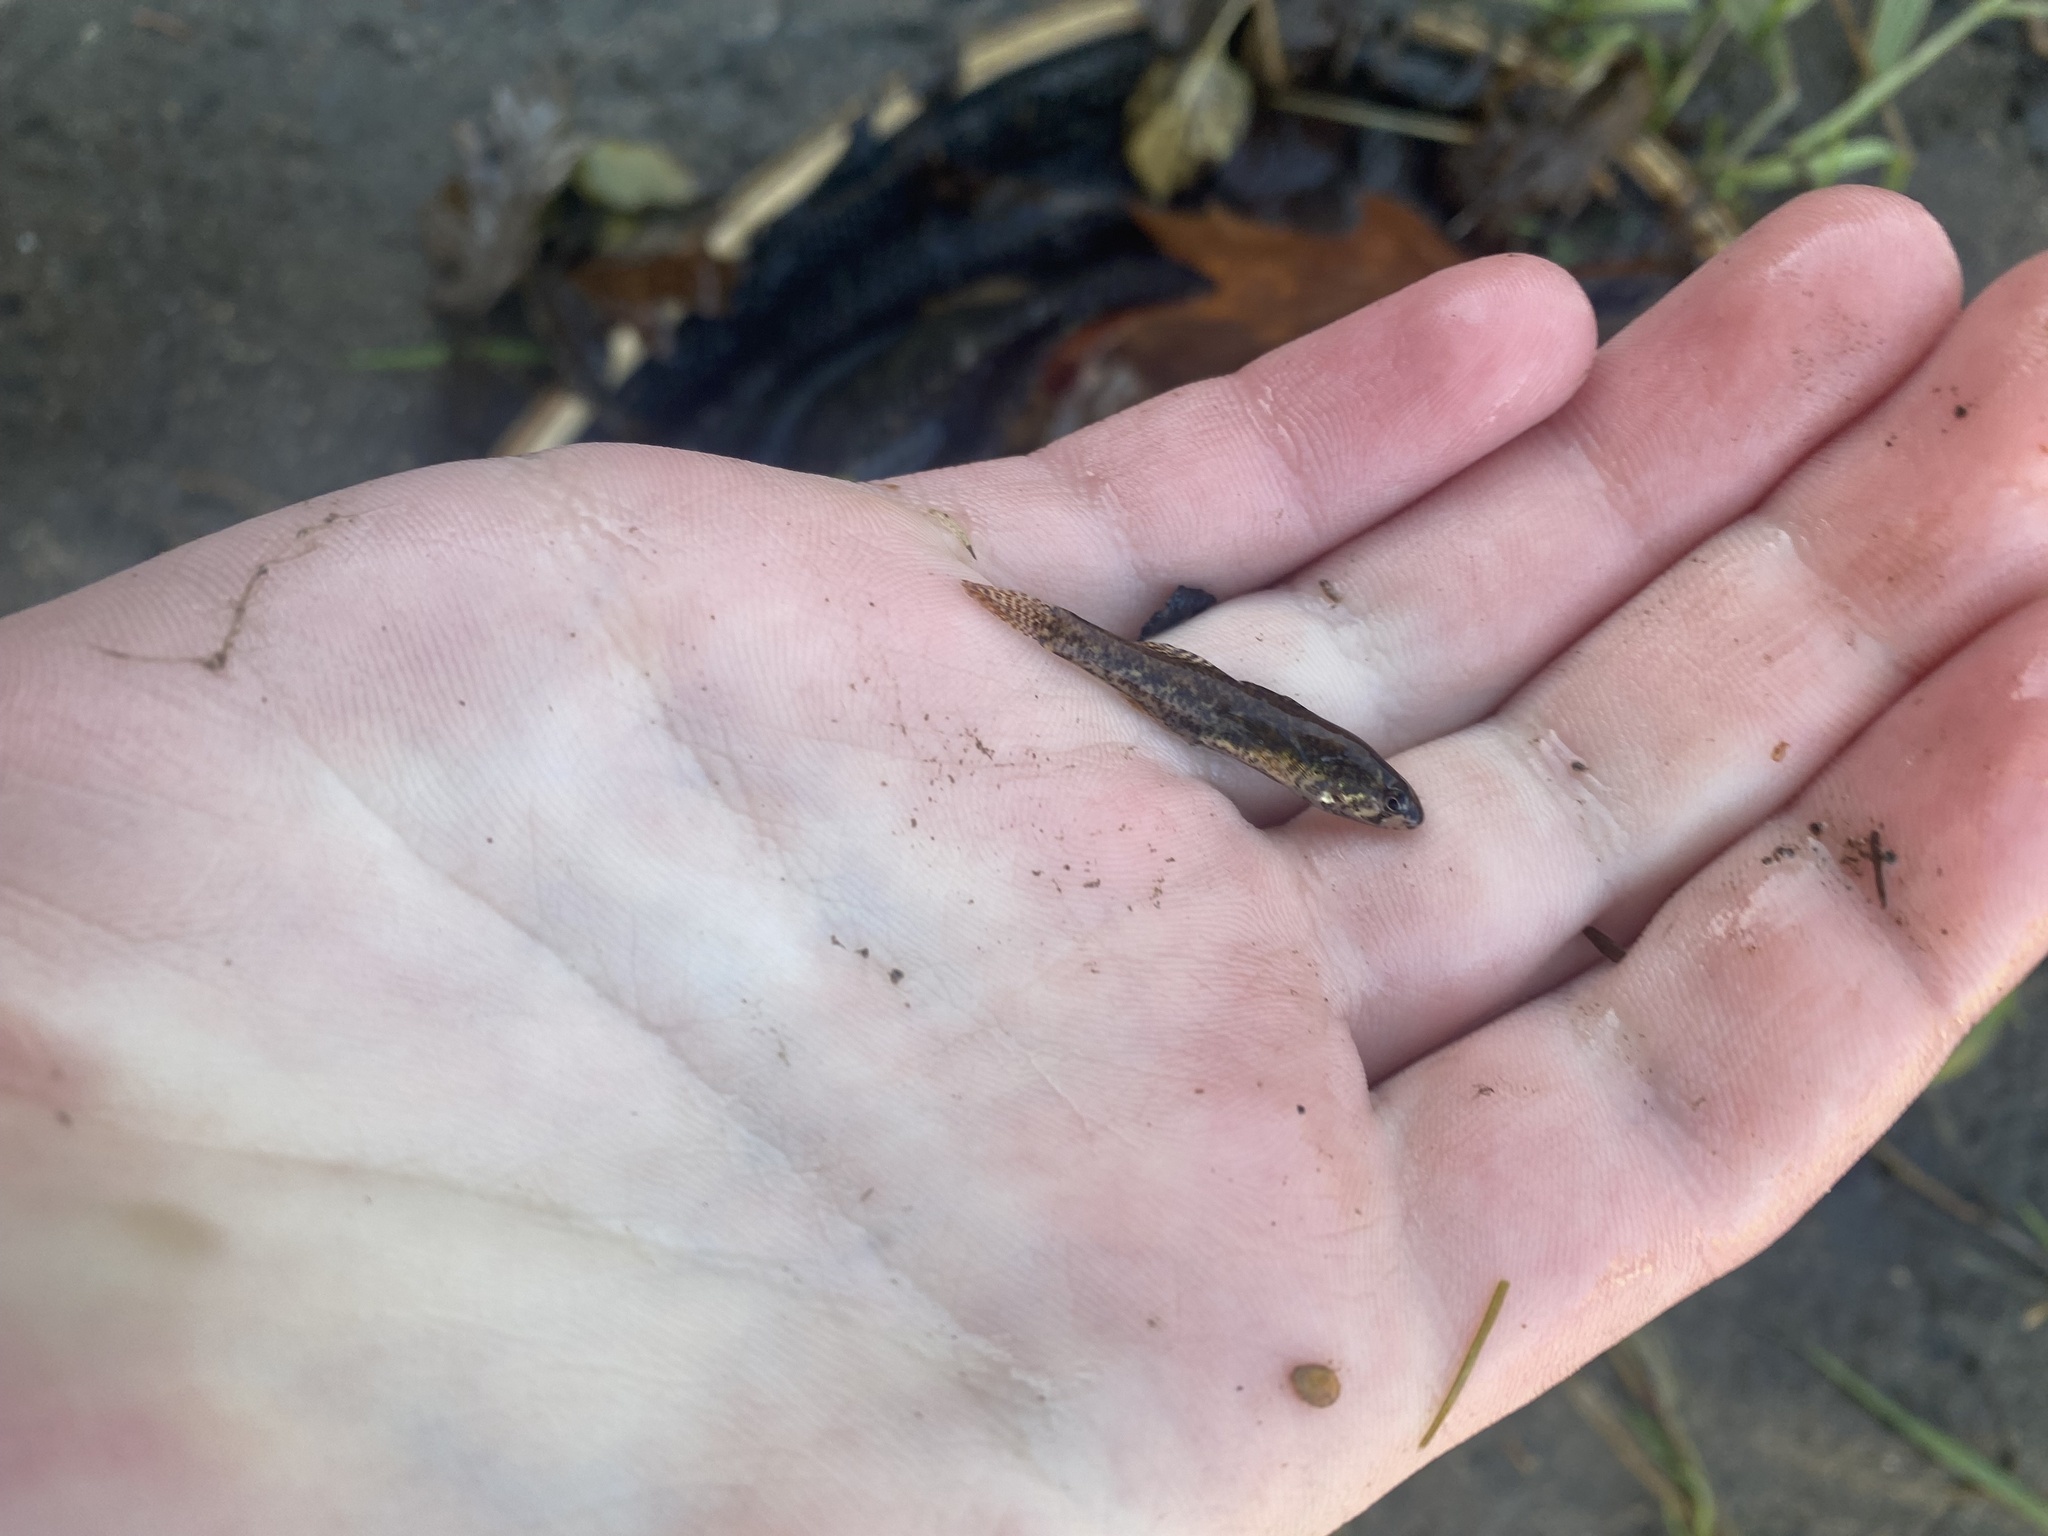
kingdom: Animalia
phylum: Chordata
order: Perciformes
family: Percidae
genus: Etheostoma
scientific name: Etheostoma microperca
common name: Least darter
